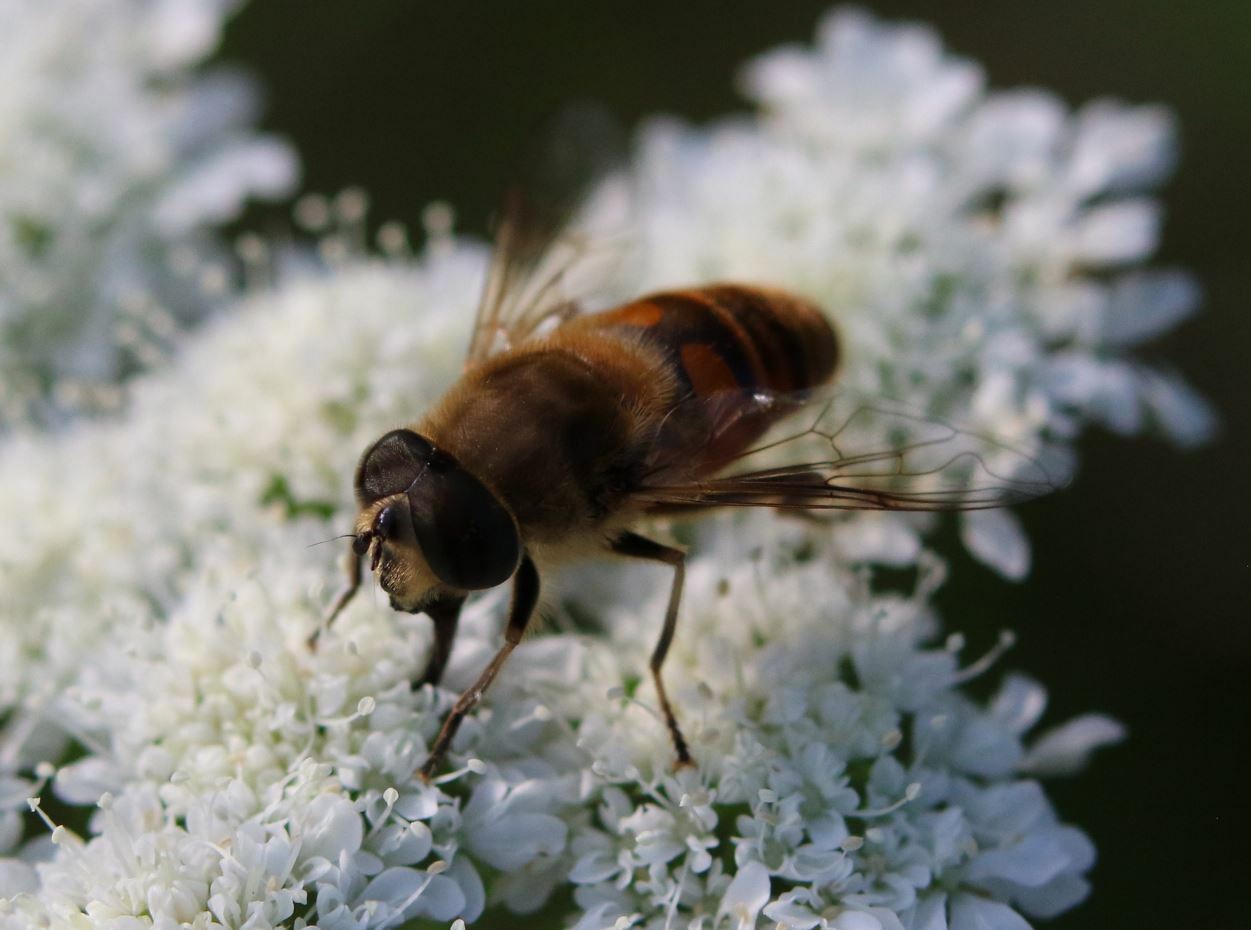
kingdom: Animalia
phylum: Arthropoda
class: Insecta
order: Diptera
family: Syrphidae
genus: Eristalis
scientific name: Eristalis tenax
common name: Drone fly
